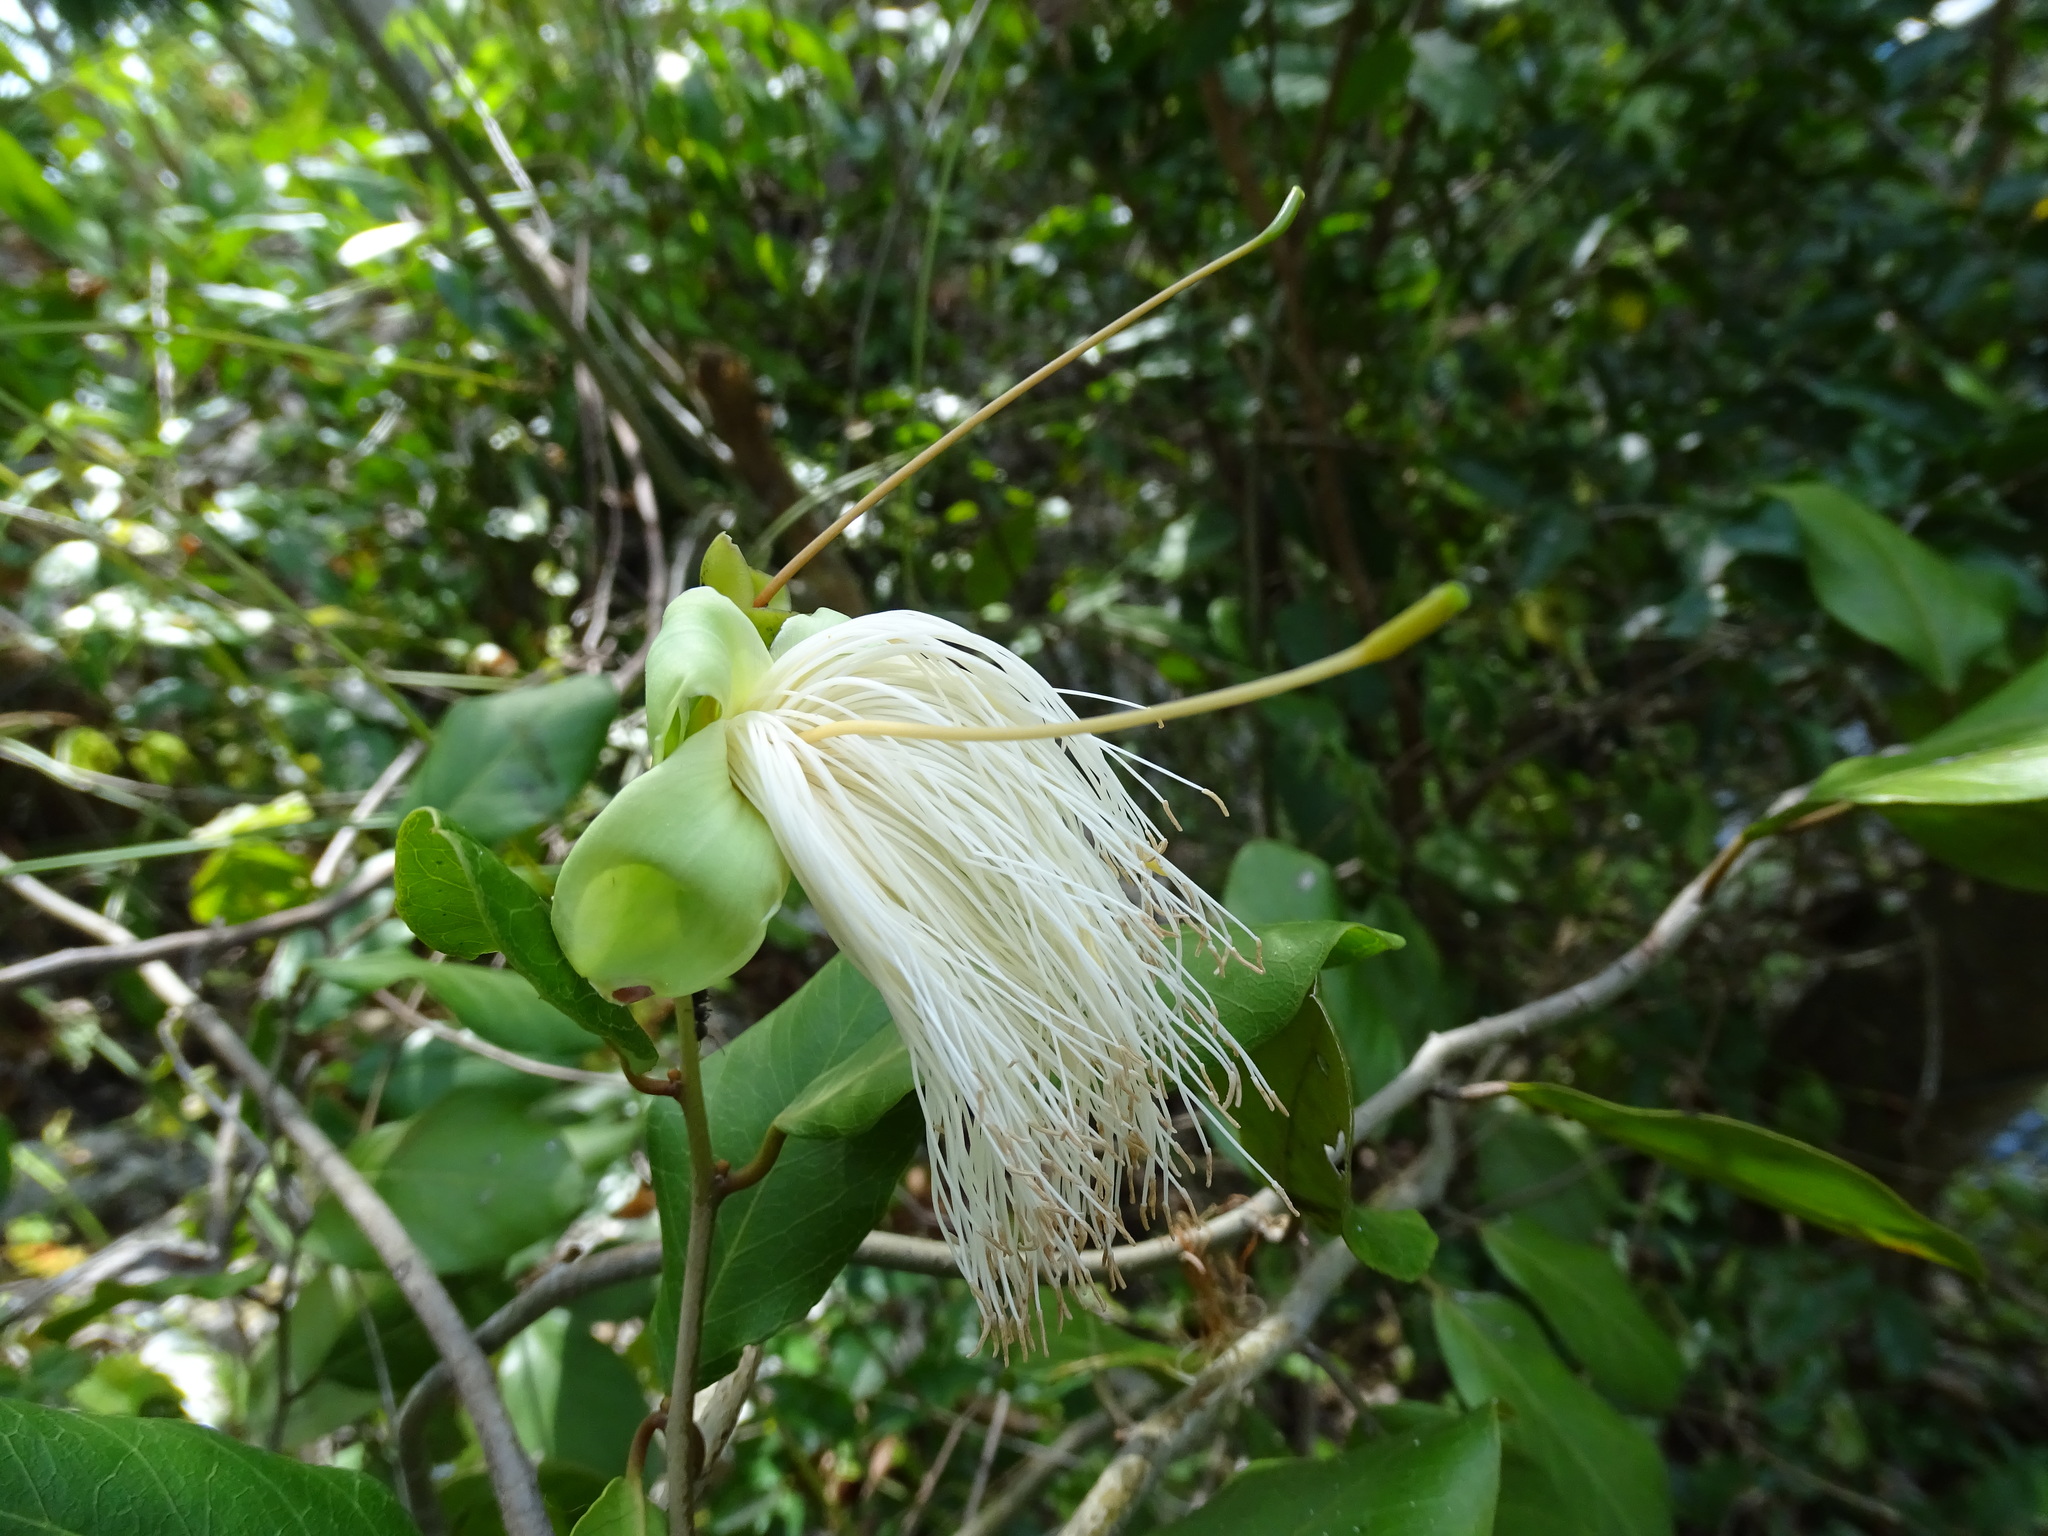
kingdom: Plantae
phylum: Tracheophyta
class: Magnoliopsida
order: Brassicales
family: Capparaceae
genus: Cynophalla
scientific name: Cynophalla flexuosa
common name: Capertree
